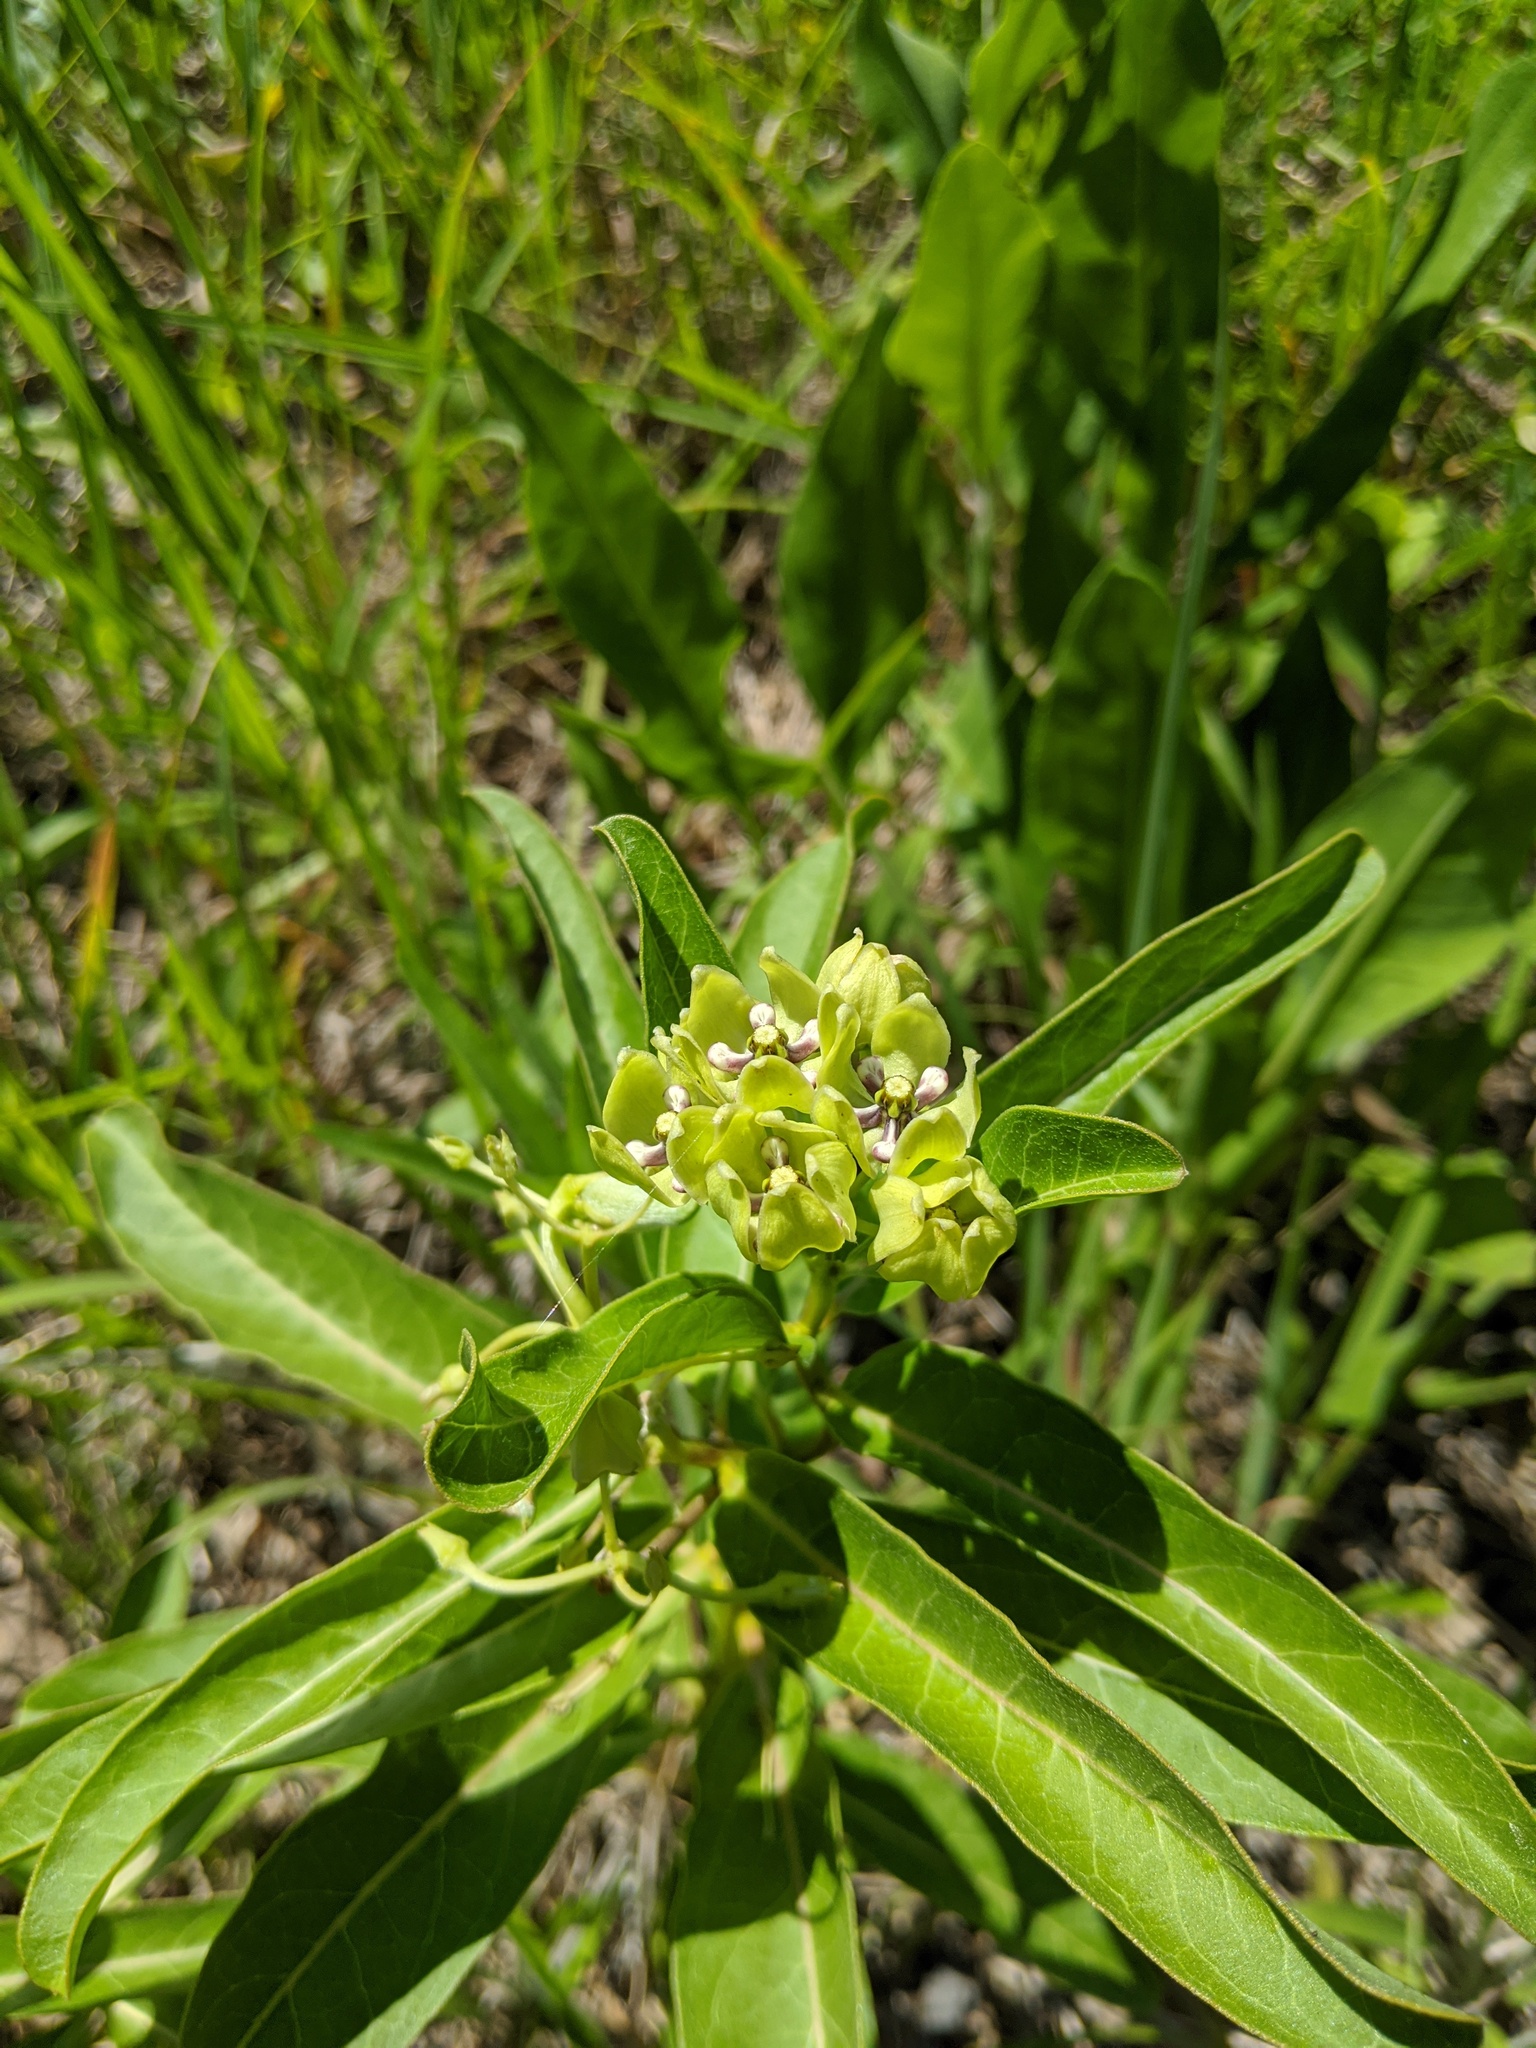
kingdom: Plantae
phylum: Tracheophyta
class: Magnoliopsida
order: Gentianales
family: Apocynaceae
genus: Asclepias
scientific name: Asclepias viridis
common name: Antelope-horns
